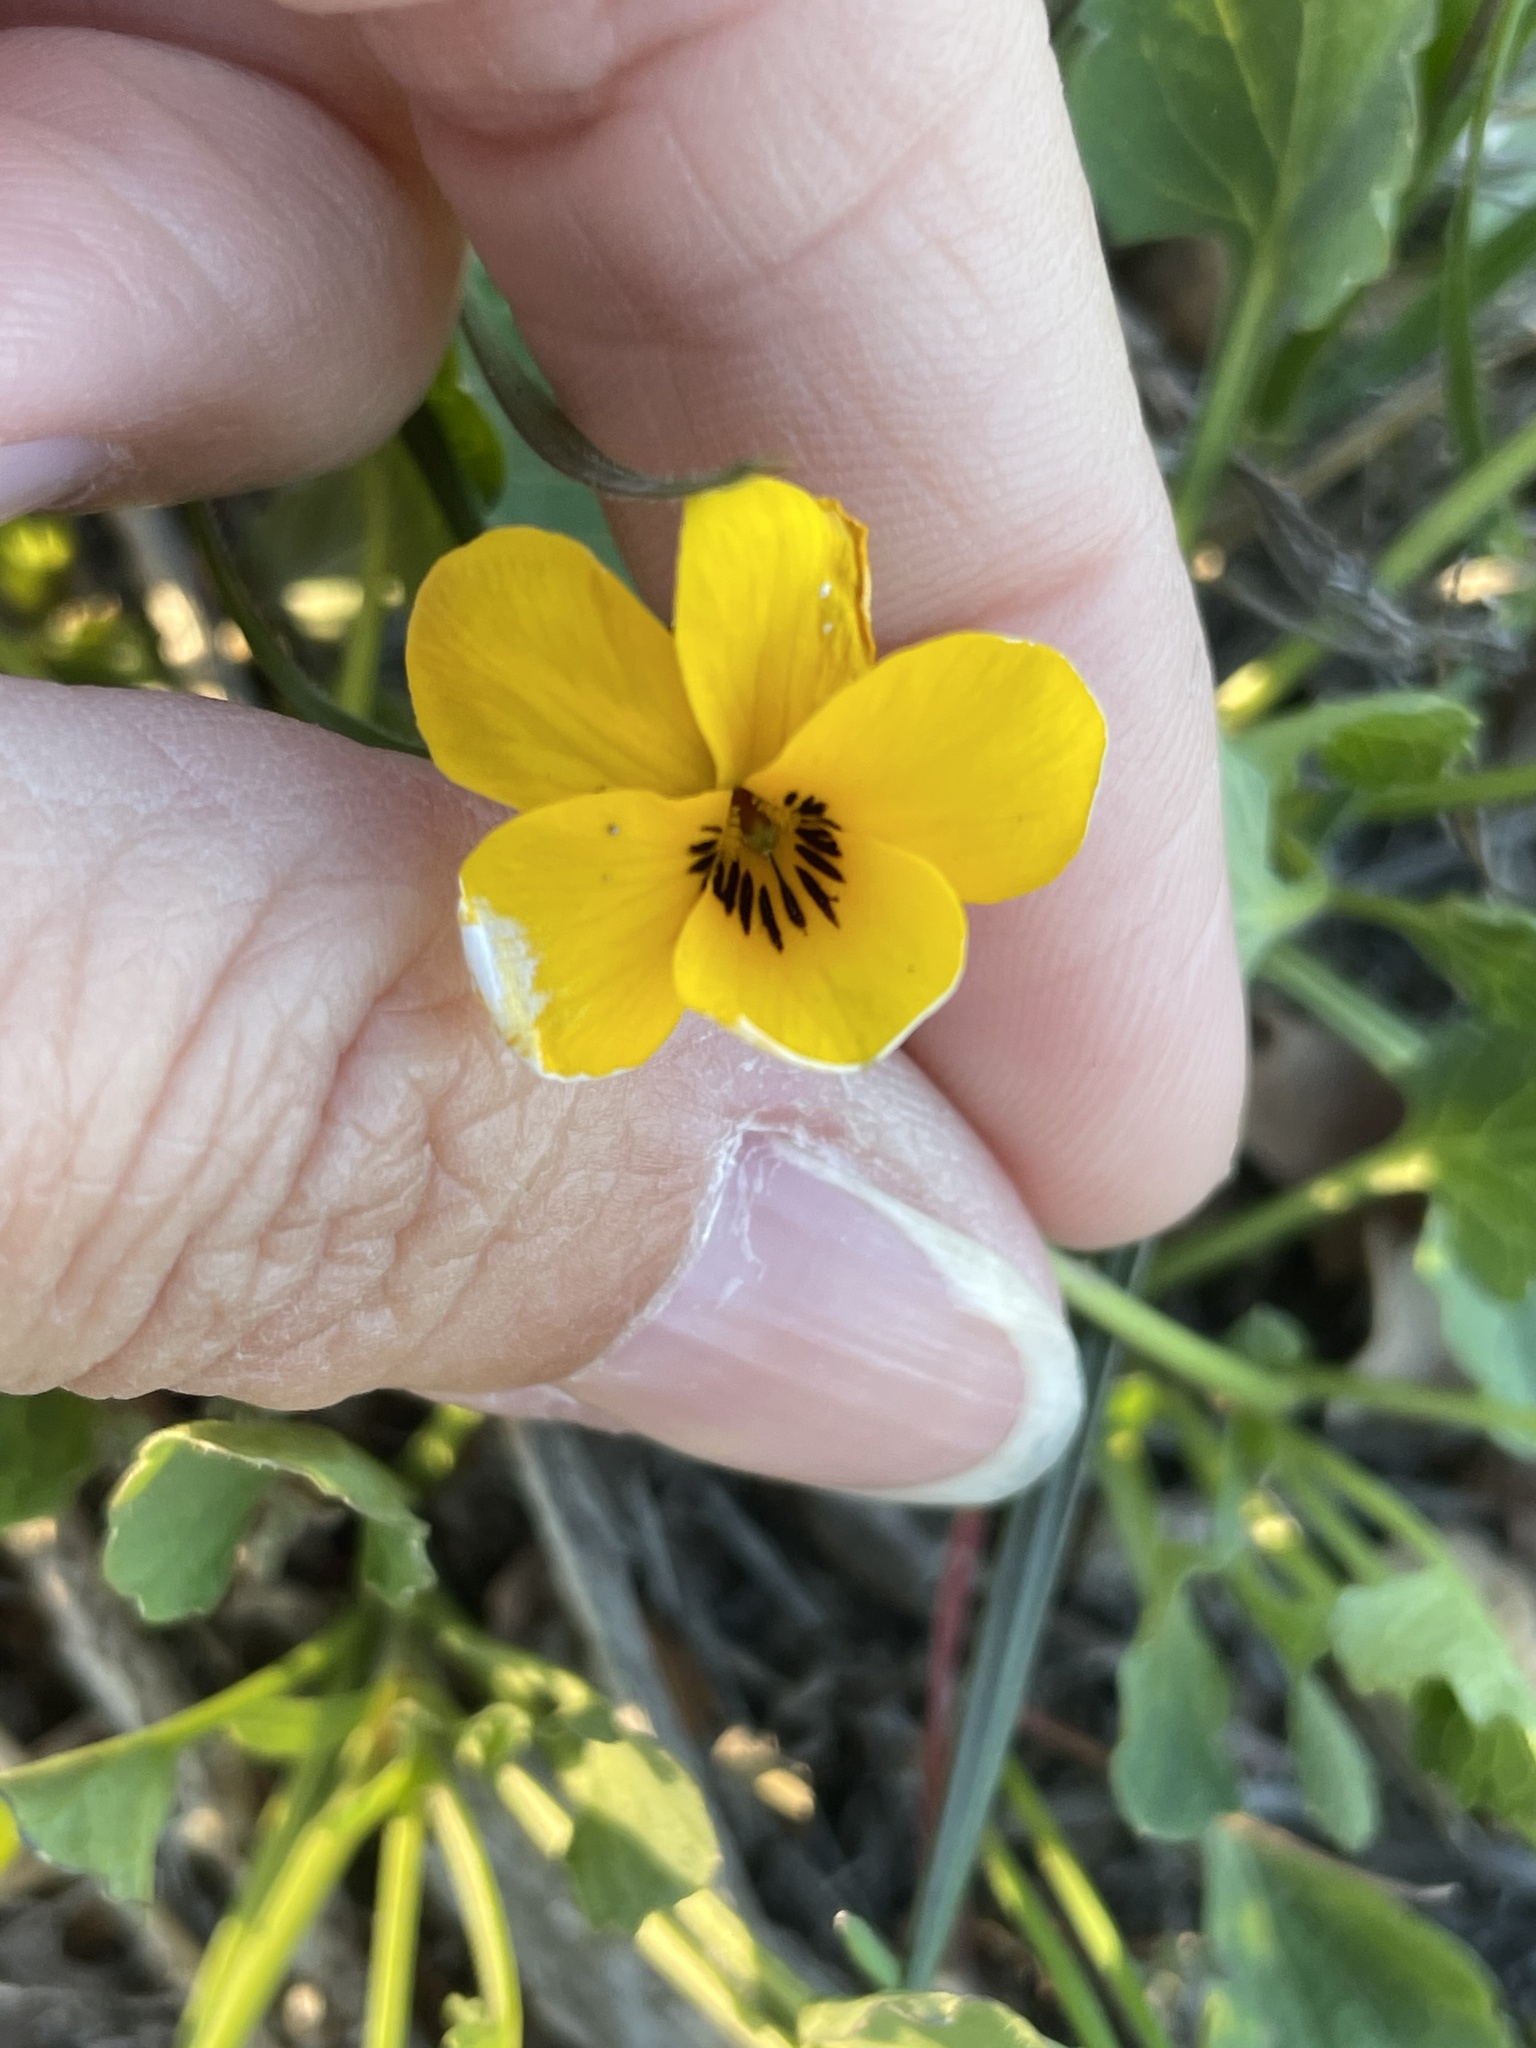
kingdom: Plantae
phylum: Tracheophyta
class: Magnoliopsida
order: Malpighiales
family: Violaceae
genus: Viola
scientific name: Viola pedunculata
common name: California golden violet
